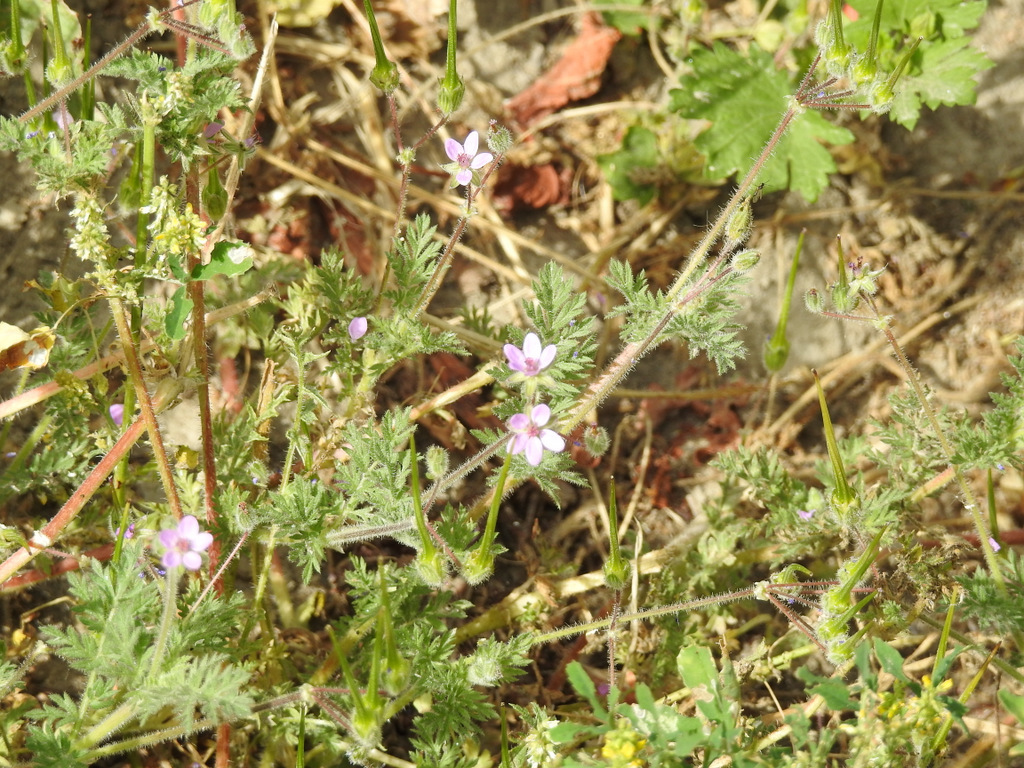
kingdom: Plantae
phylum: Tracheophyta
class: Magnoliopsida
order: Geraniales
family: Geraniaceae
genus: Erodium
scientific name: Erodium cicutarium
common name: Common stork's-bill
